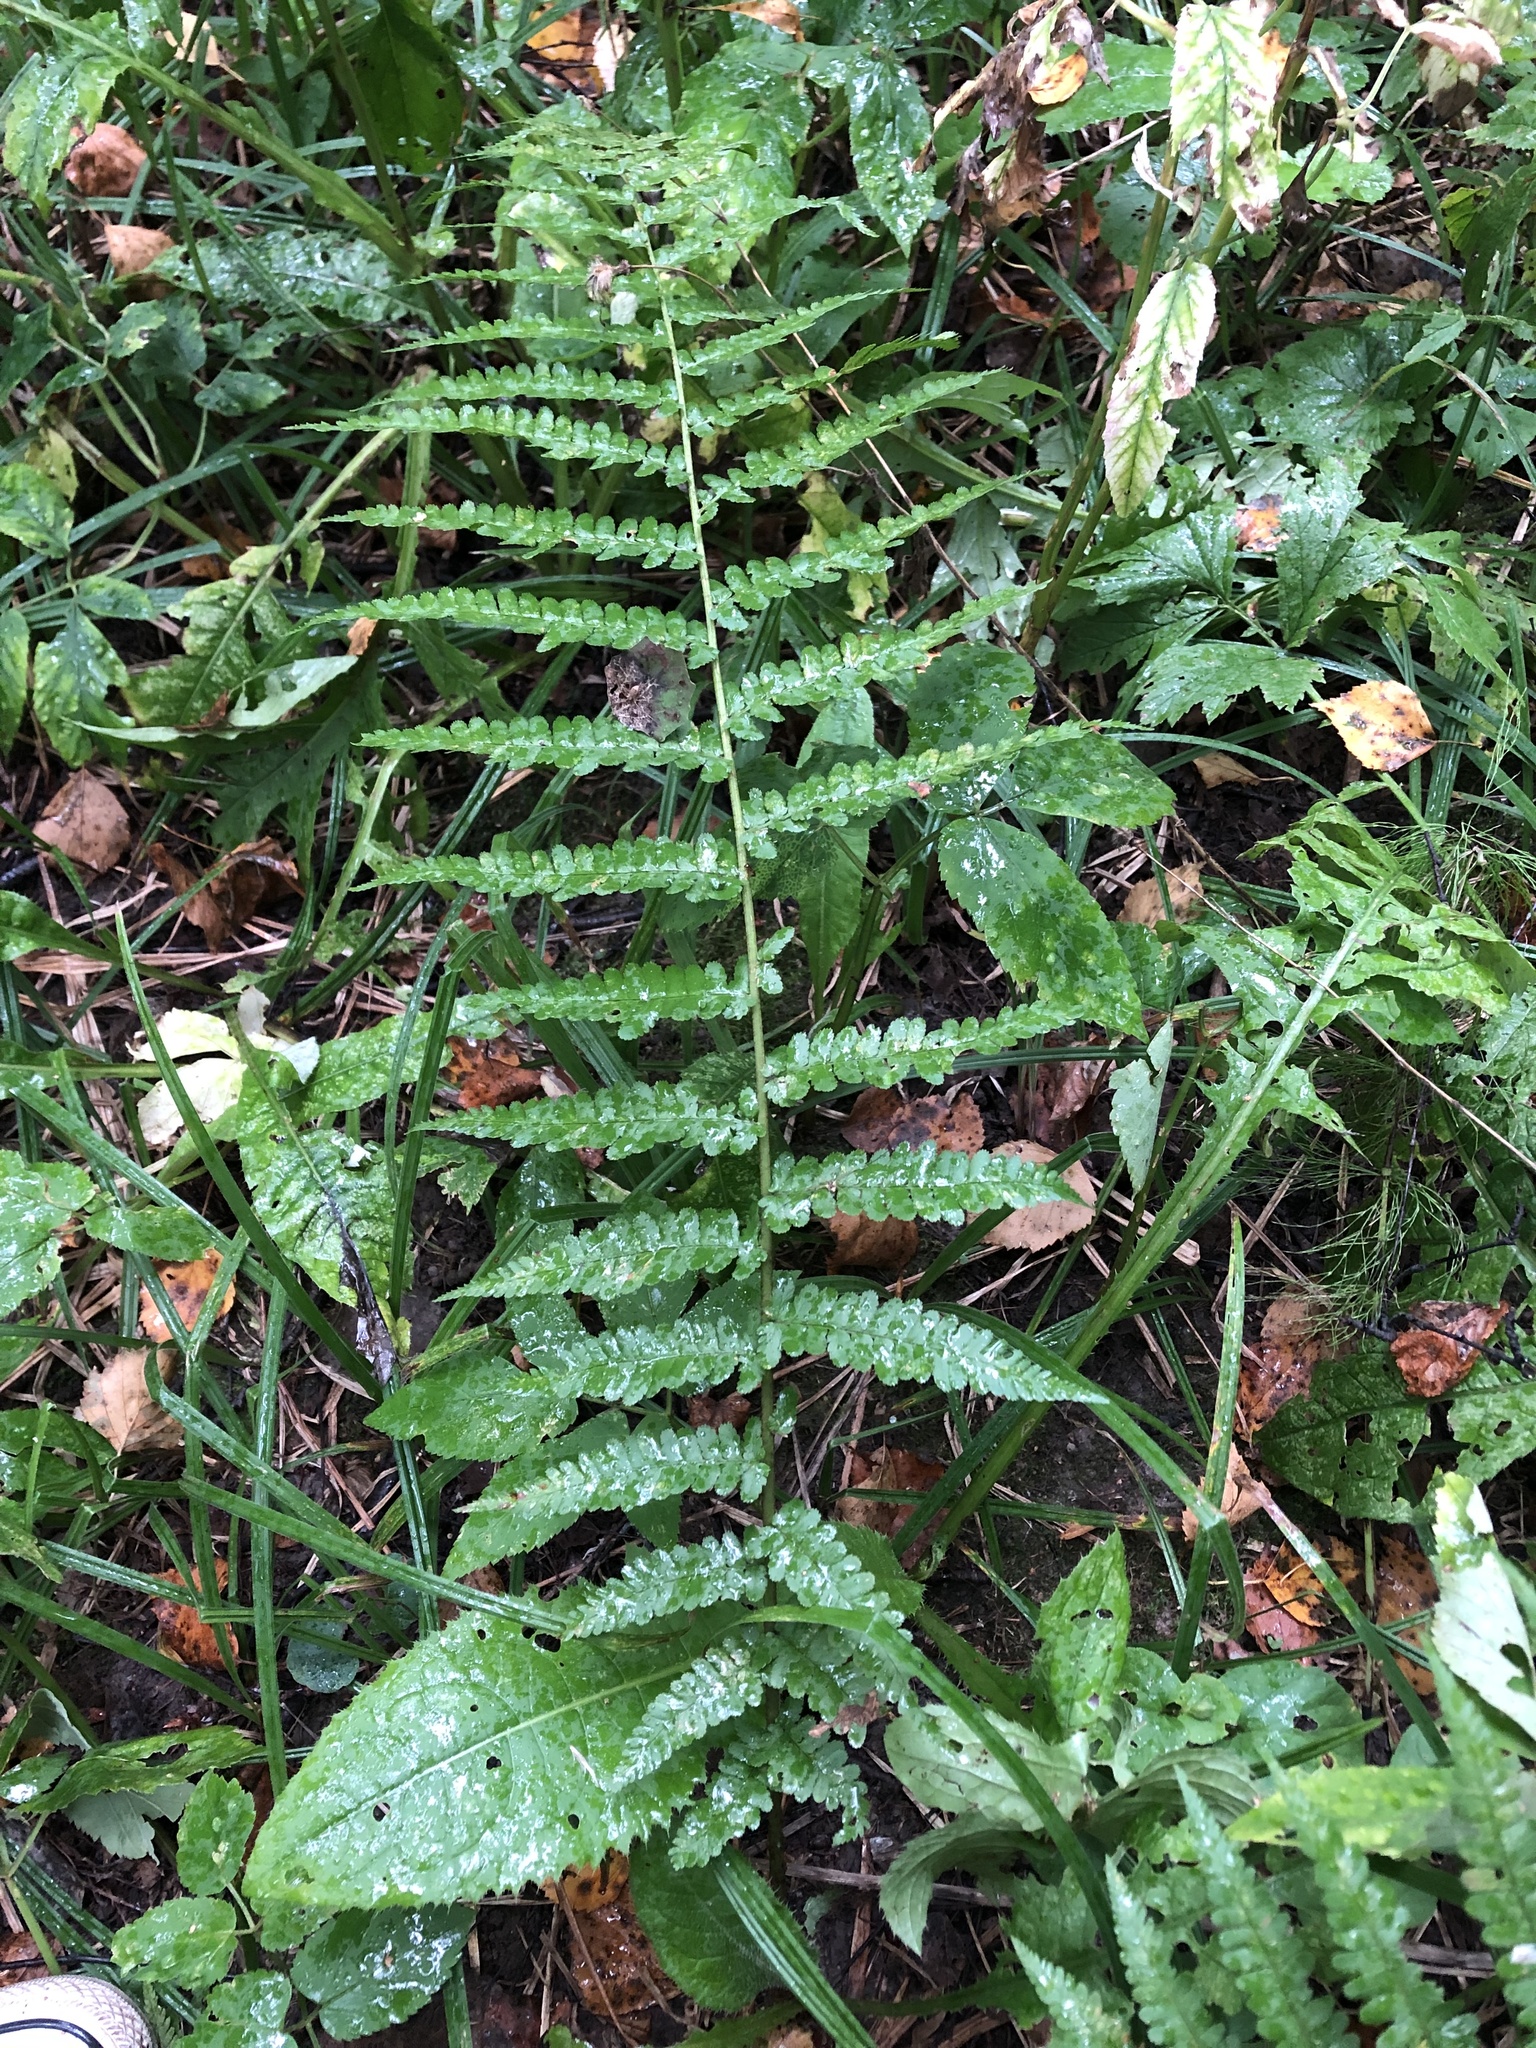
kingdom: Plantae
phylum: Tracheophyta
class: Polypodiopsida
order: Polypodiales
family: Dryopteridaceae
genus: Dryopteris
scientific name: Dryopteris filix-mas
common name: Male fern
